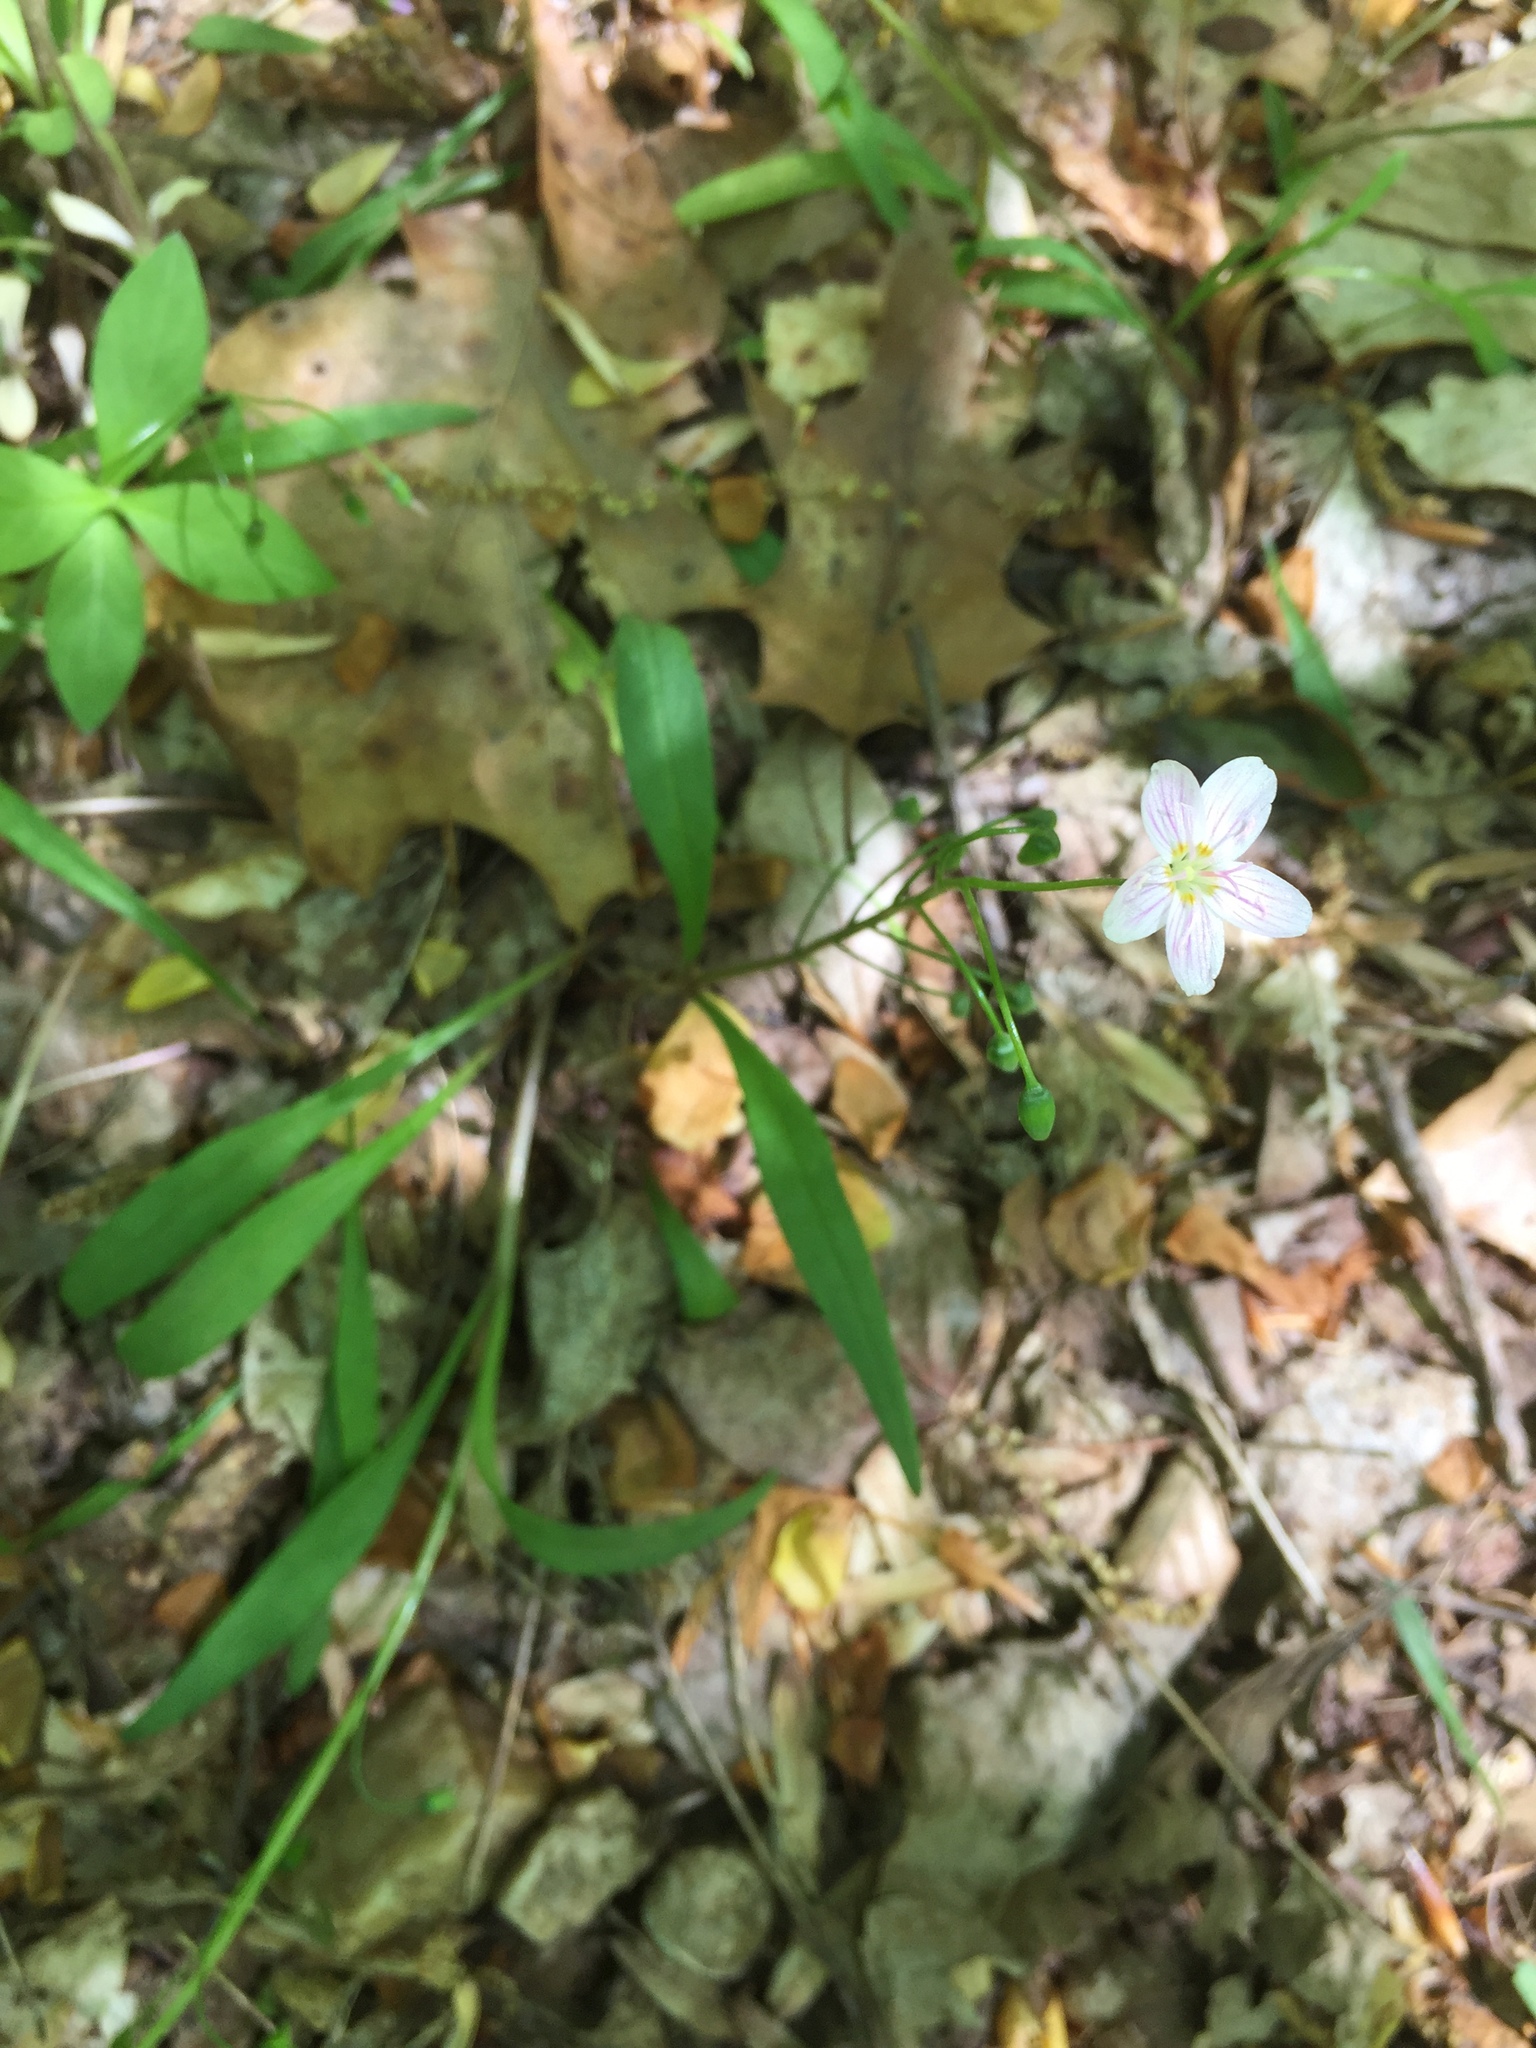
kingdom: Plantae
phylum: Tracheophyta
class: Magnoliopsida
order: Caryophyllales
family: Montiaceae
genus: Claytonia
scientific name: Claytonia virginica
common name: Virginia springbeauty
